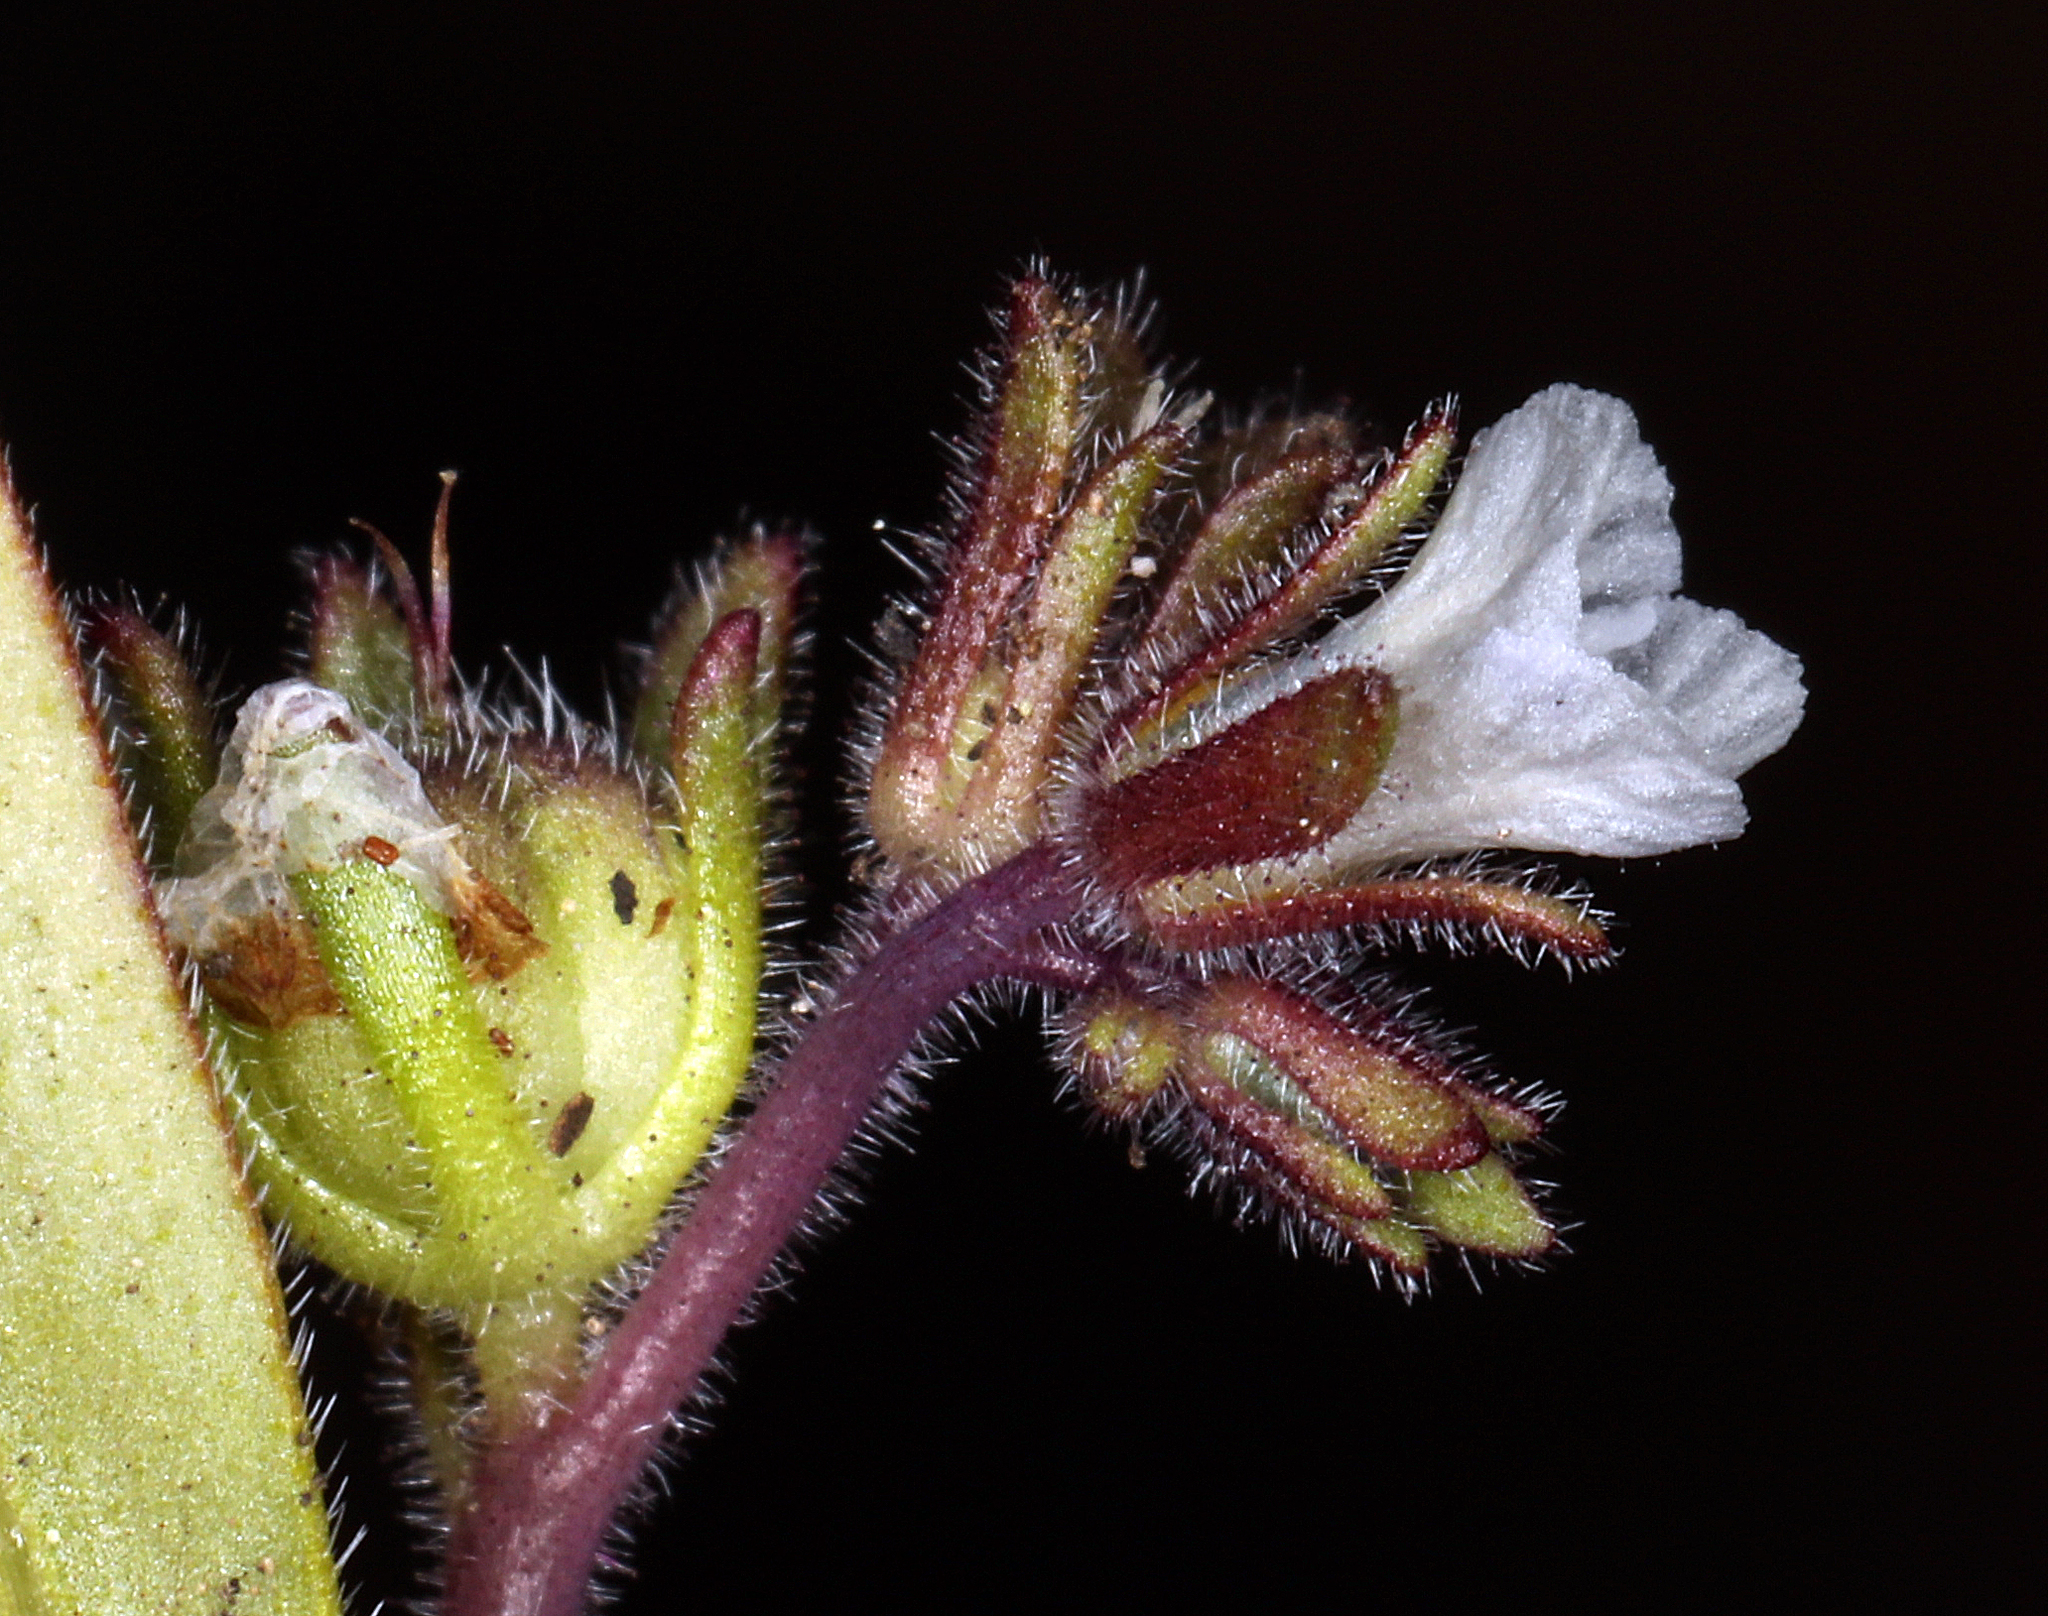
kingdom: Plantae
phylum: Tracheophyta
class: Magnoliopsida
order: Boraginales
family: Hydrophyllaceae
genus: Phacelia
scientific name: Phacelia racemosa
